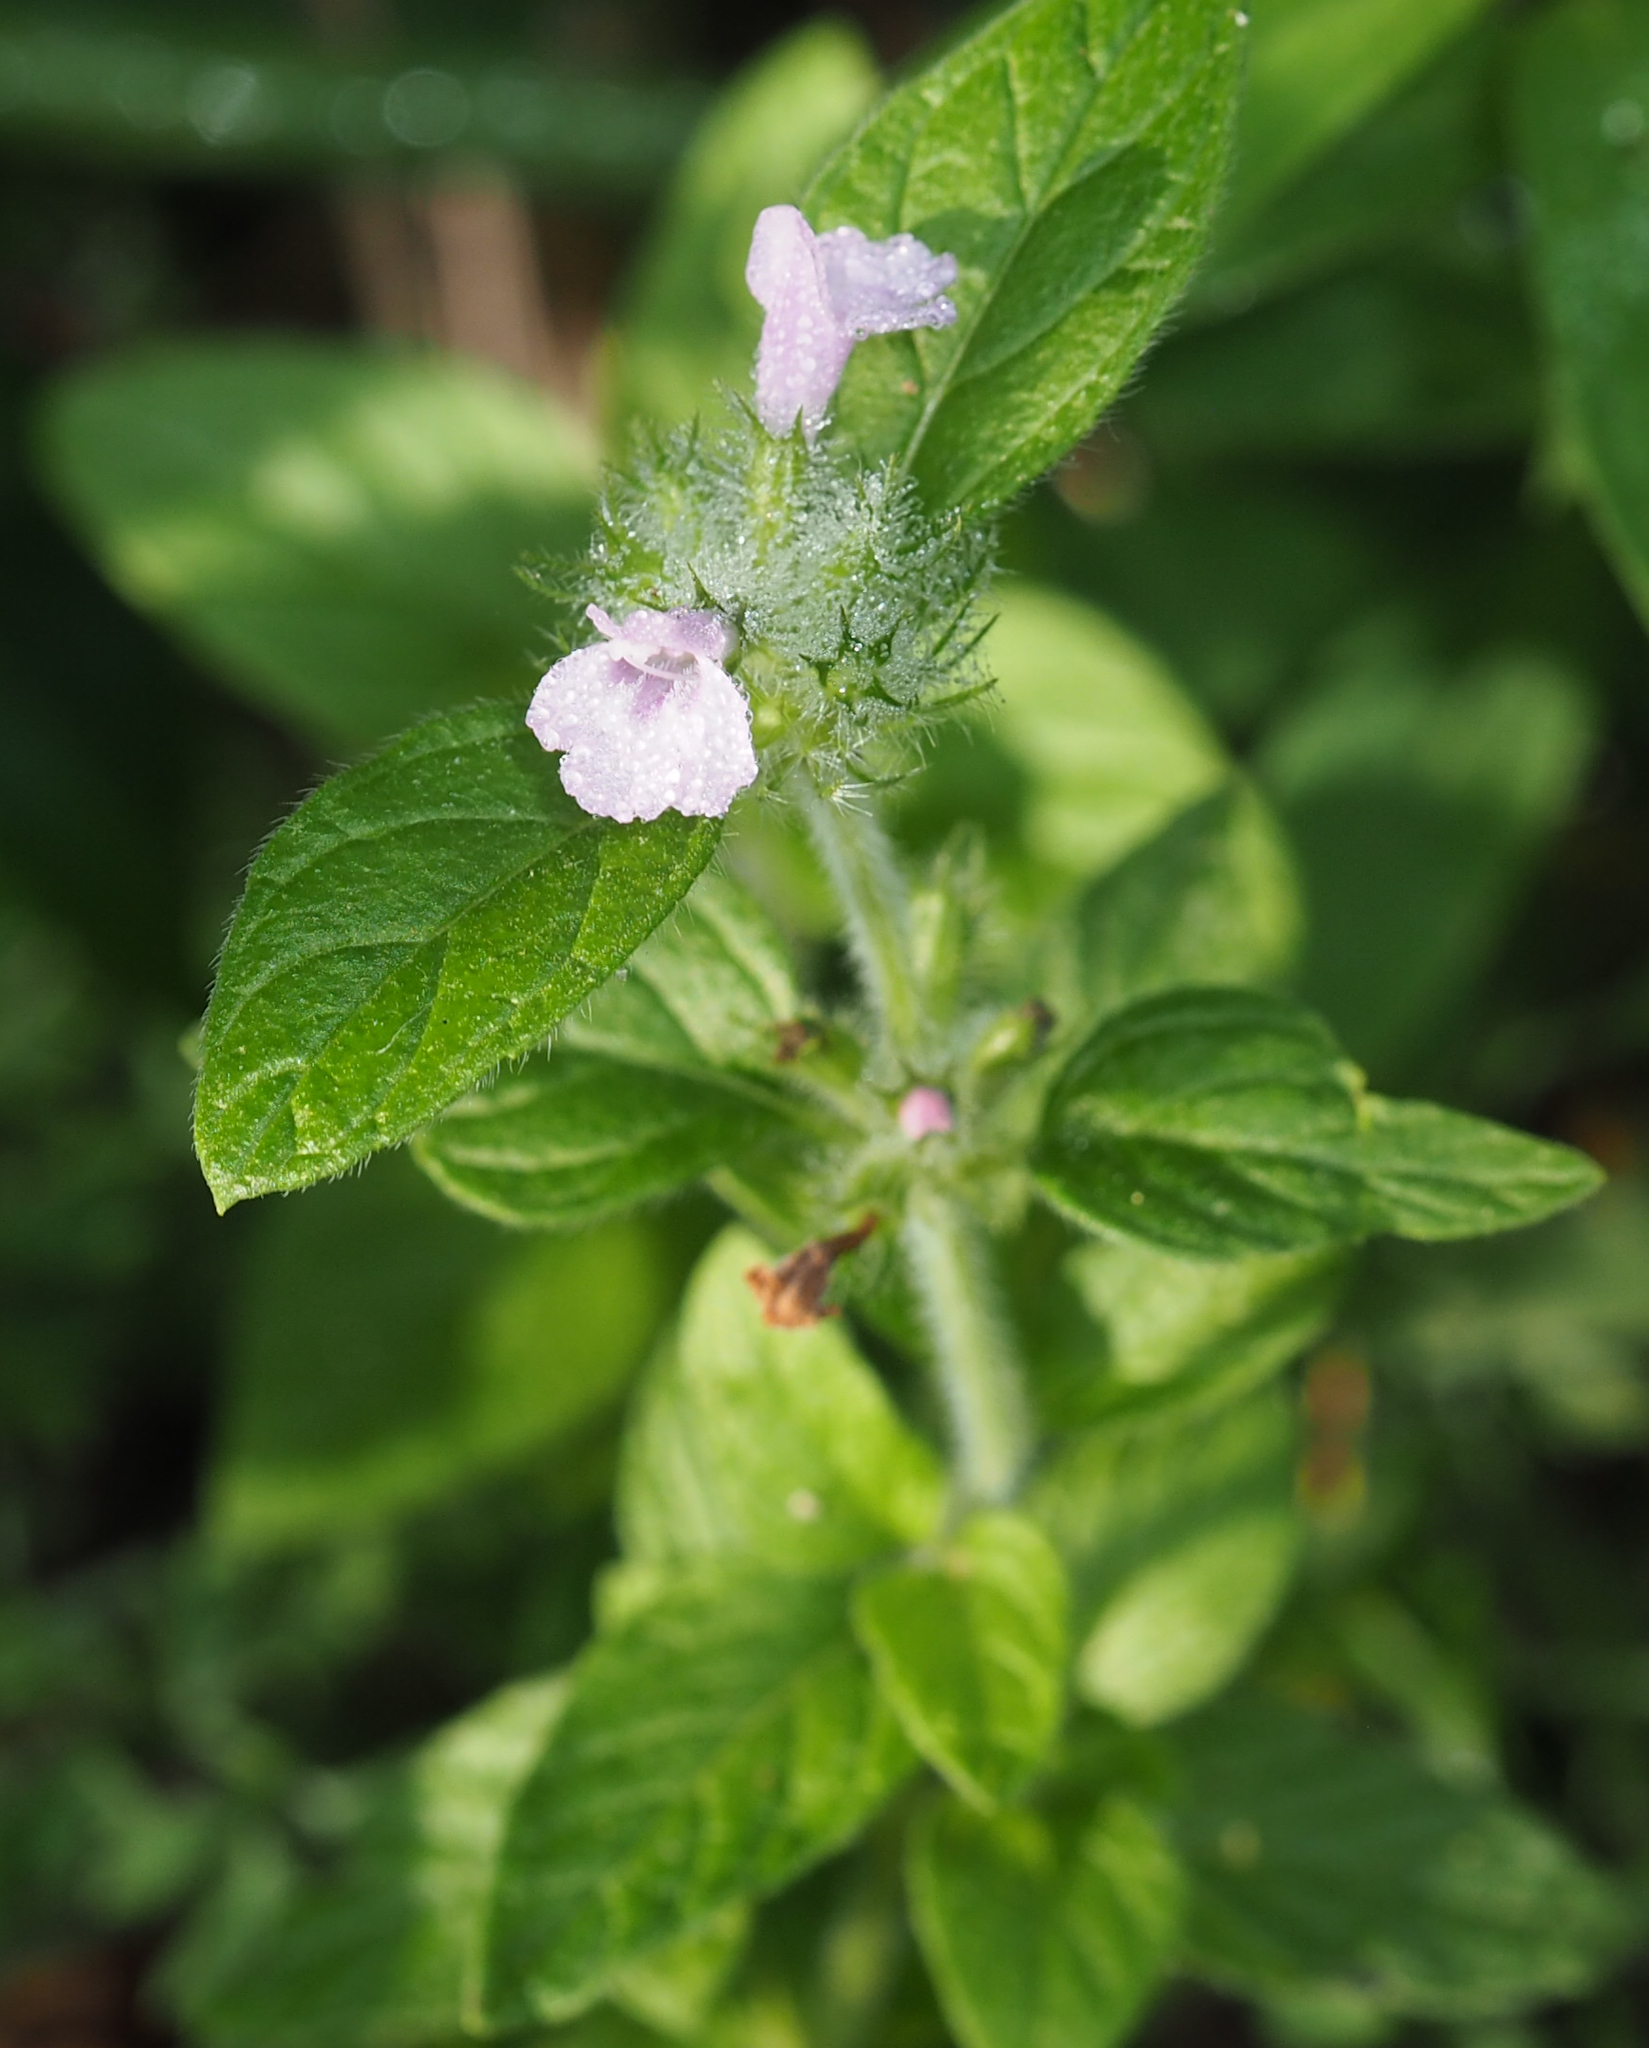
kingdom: Plantae
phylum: Tracheophyta
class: Magnoliopsida
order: Lamiales
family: Lamiaceae
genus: Clinopodium
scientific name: Clinopodium vulgare
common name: Wild basil
